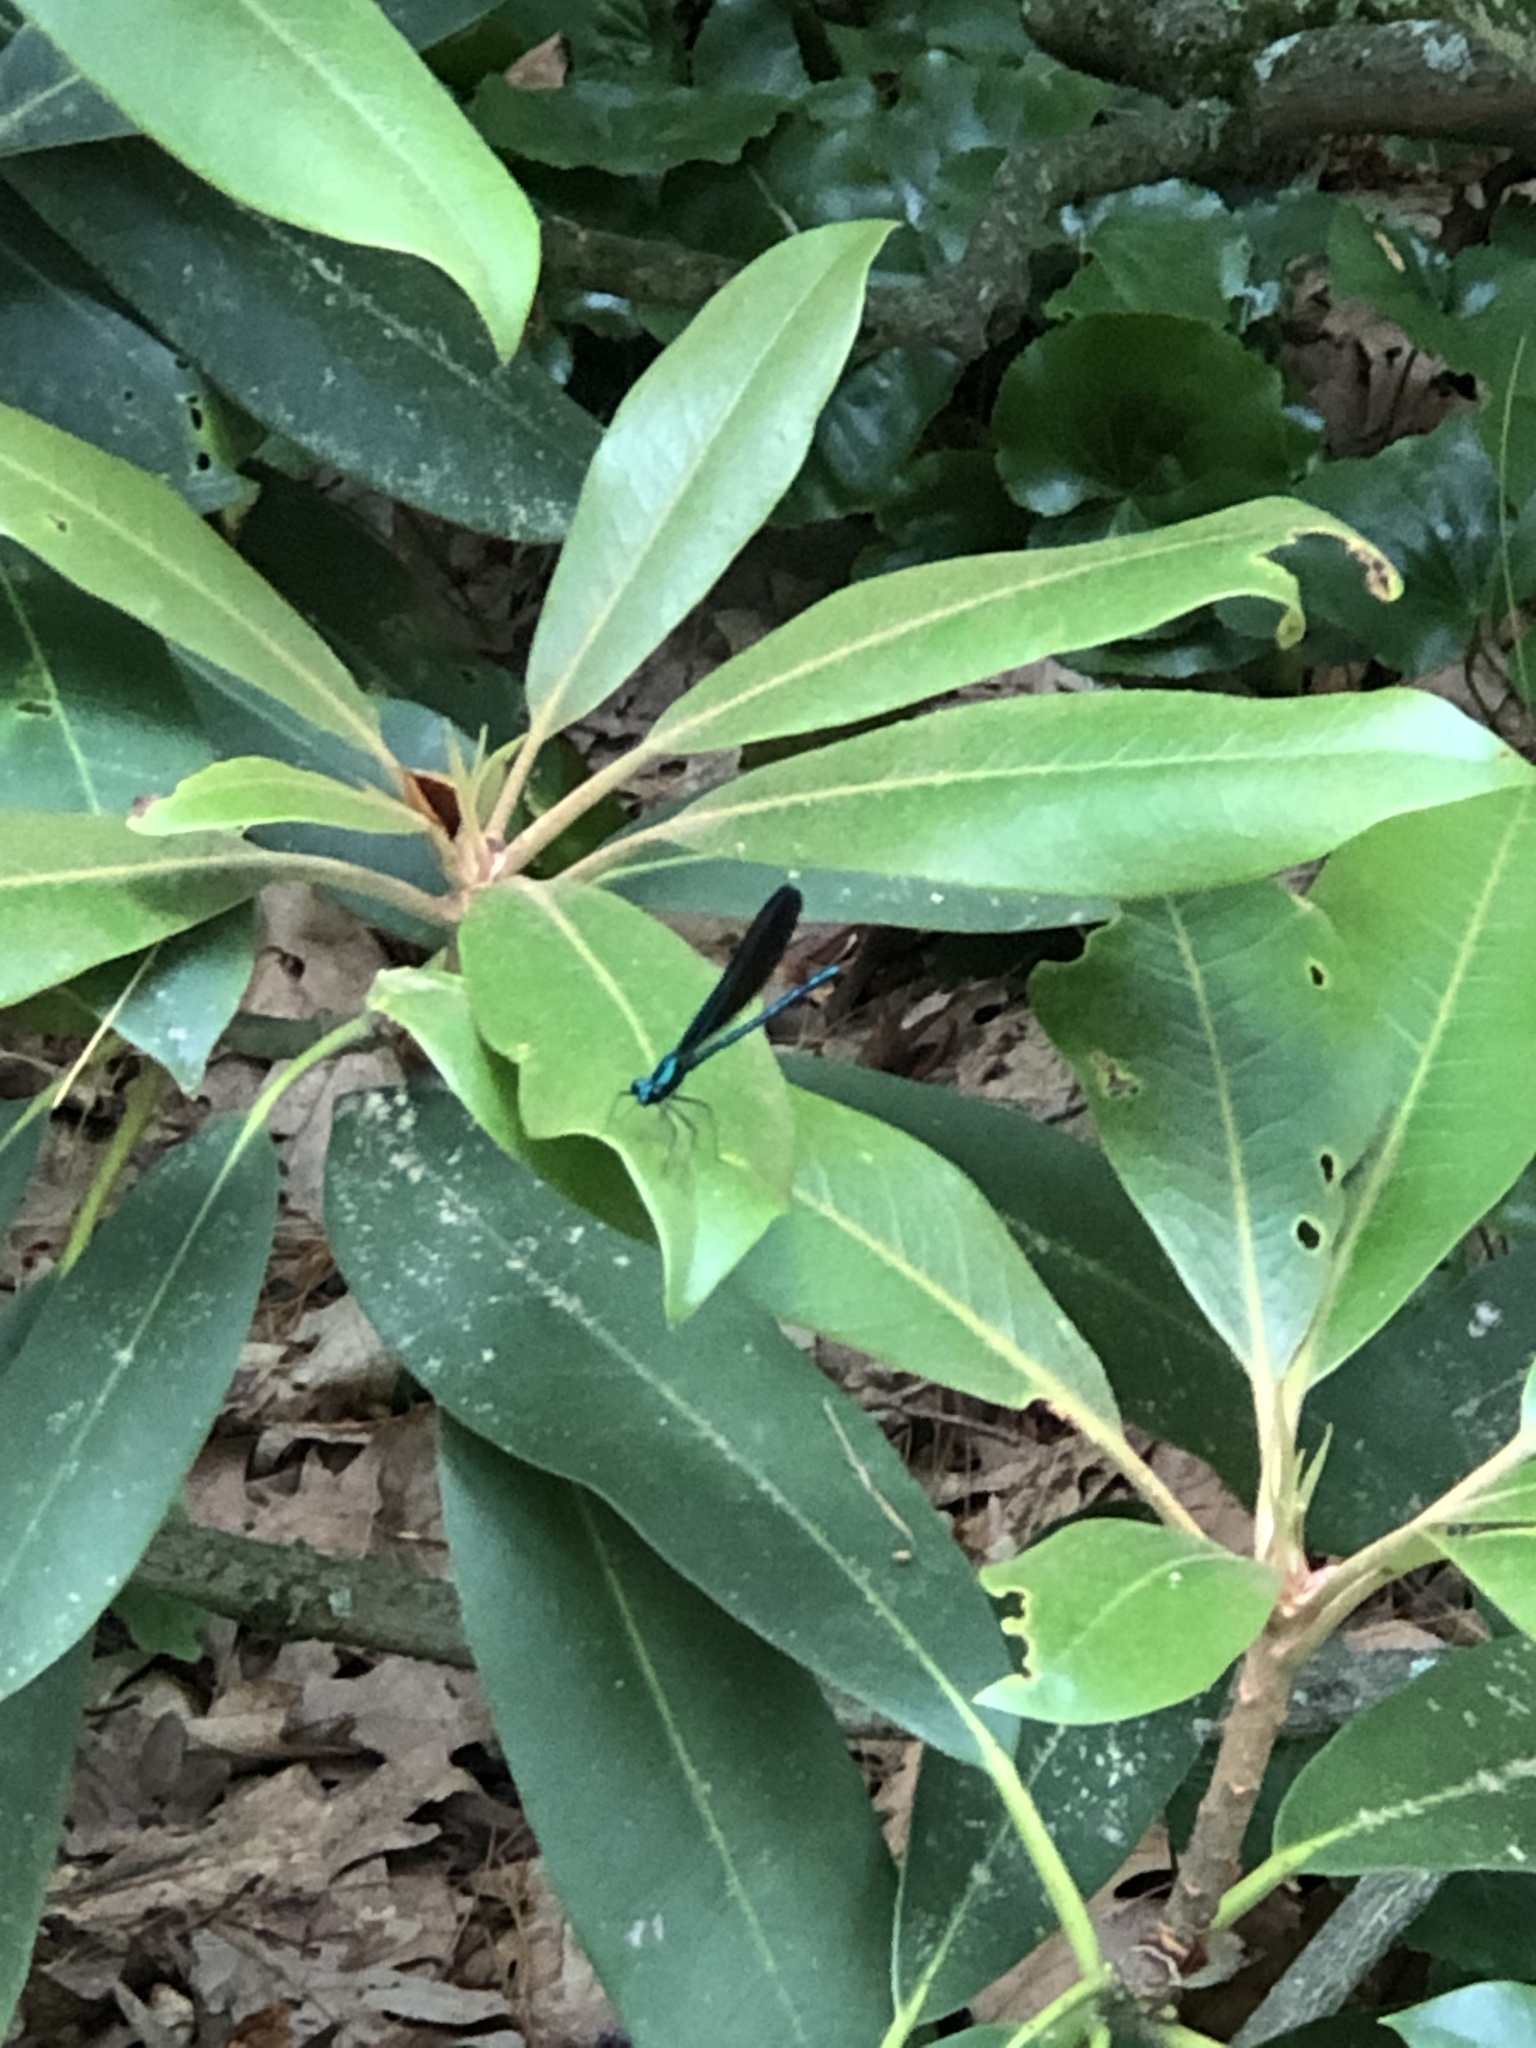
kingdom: Animalia
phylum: Arthropoda
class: Insecta
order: Odonata
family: Calopterygidae
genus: Calopteryx
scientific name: Calopteryx maculata
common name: Ebony jewelwing
